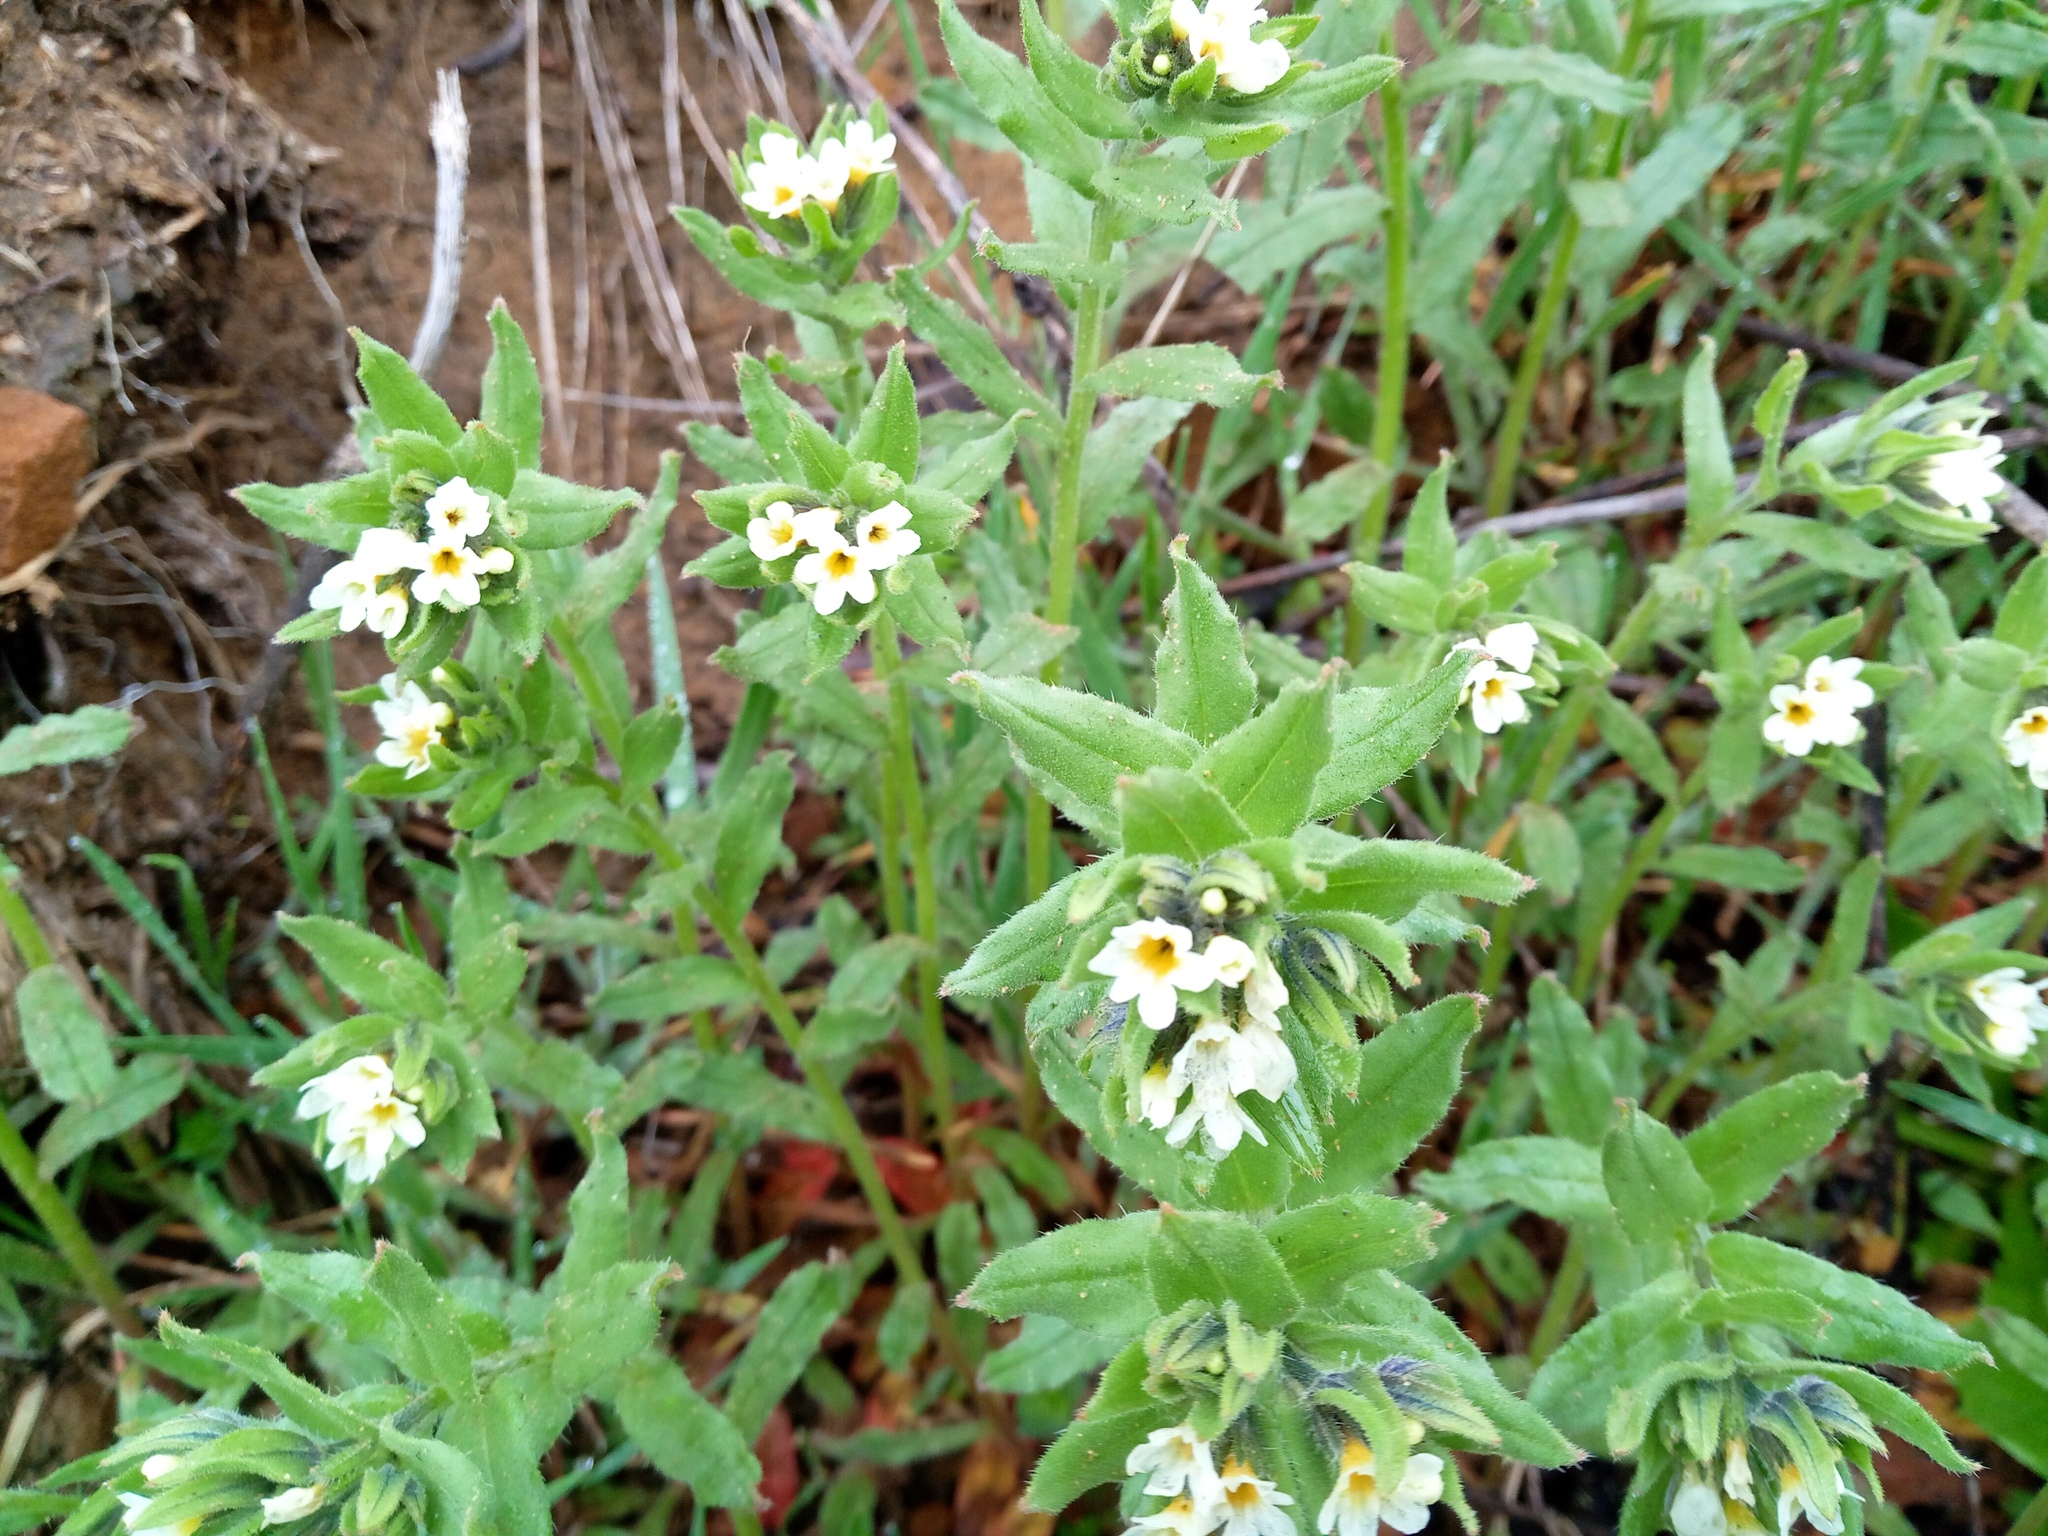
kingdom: Plantae
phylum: Tracheophyta
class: Magnoliopsida
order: Boraginales
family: Boraginaceae
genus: Buglossoides
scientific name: Buglossoides czernjajevii
